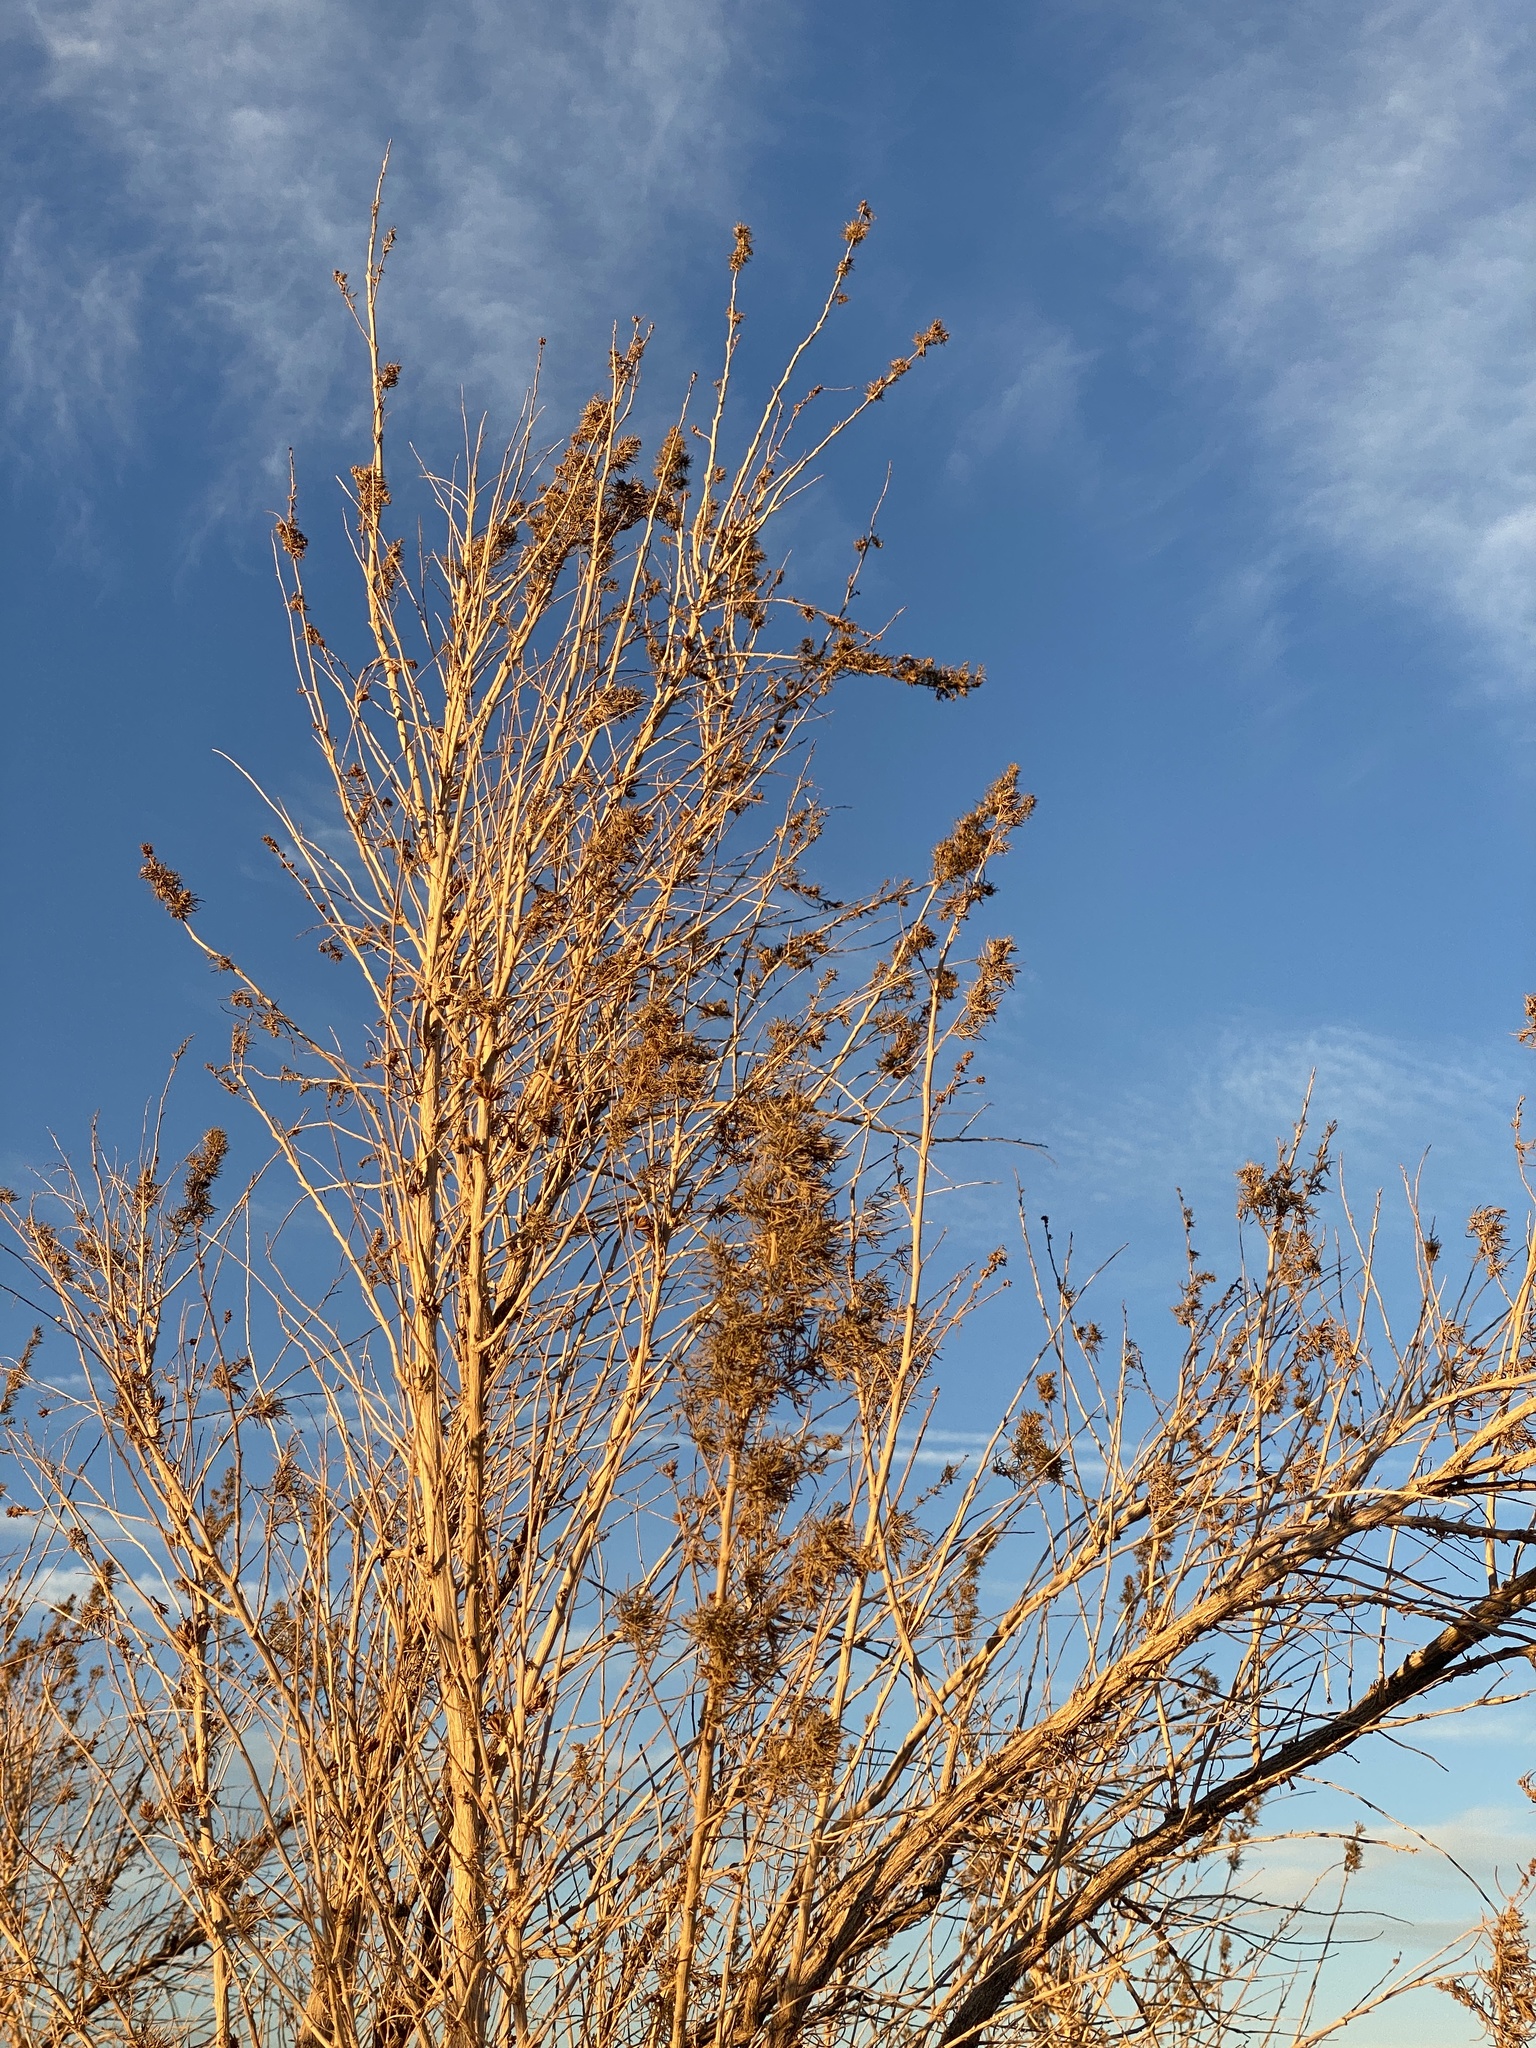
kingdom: Plantae
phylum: Tracheophyta
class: Magnoliopsida
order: Asterales
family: Asteraceae
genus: Ambrosia
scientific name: Ambrosia monogyra
